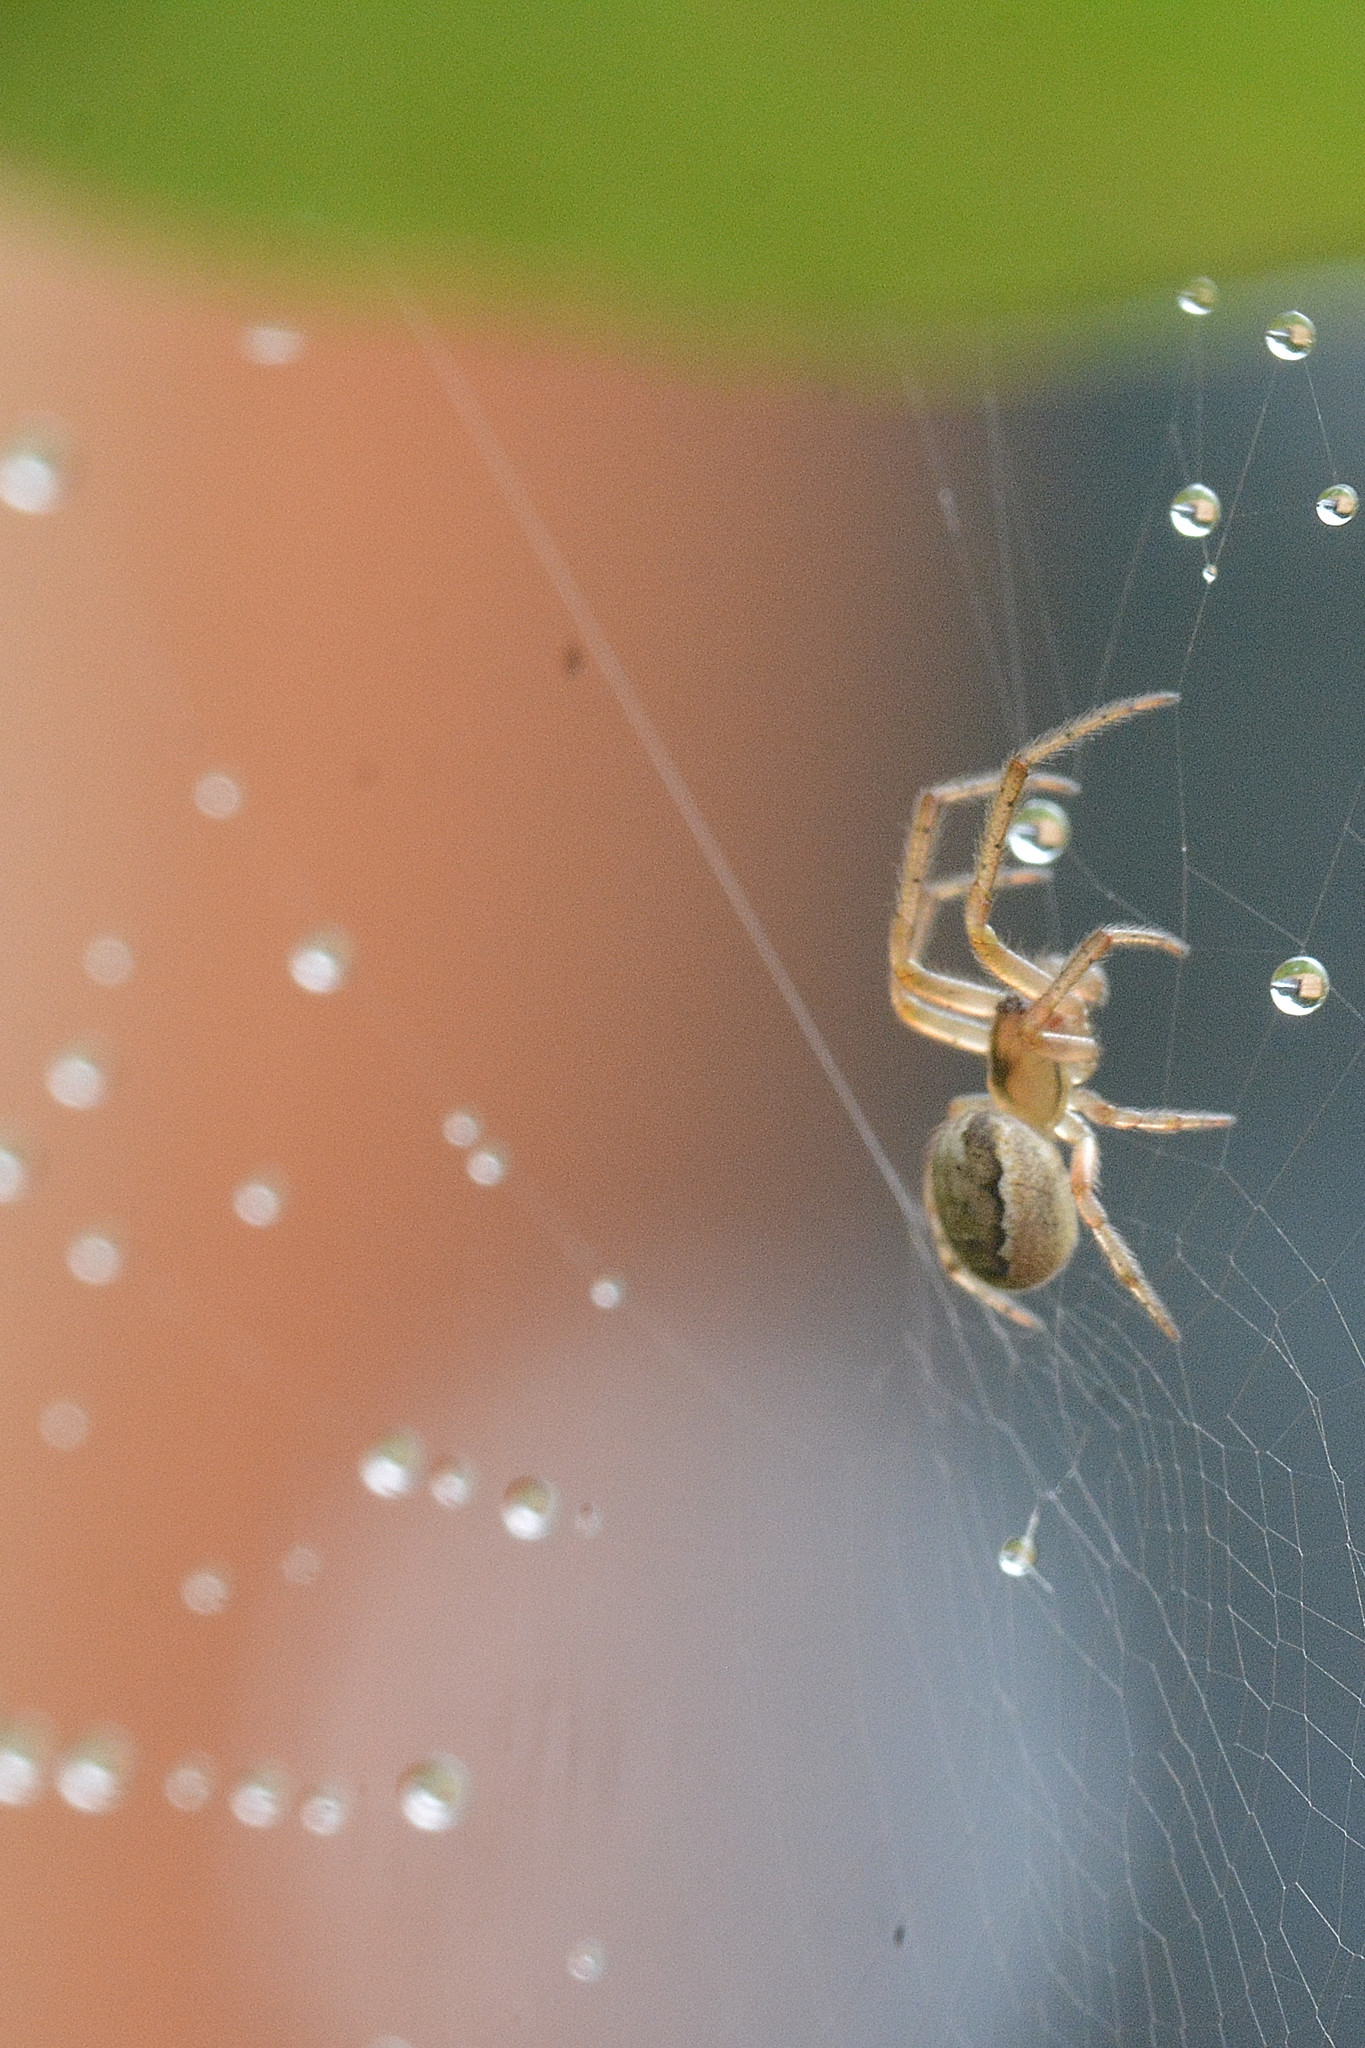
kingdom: Animalia
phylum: Arthropoda
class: Arachnida
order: Araneae
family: Araneidae
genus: Zygiella
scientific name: Zygiella x-notata
